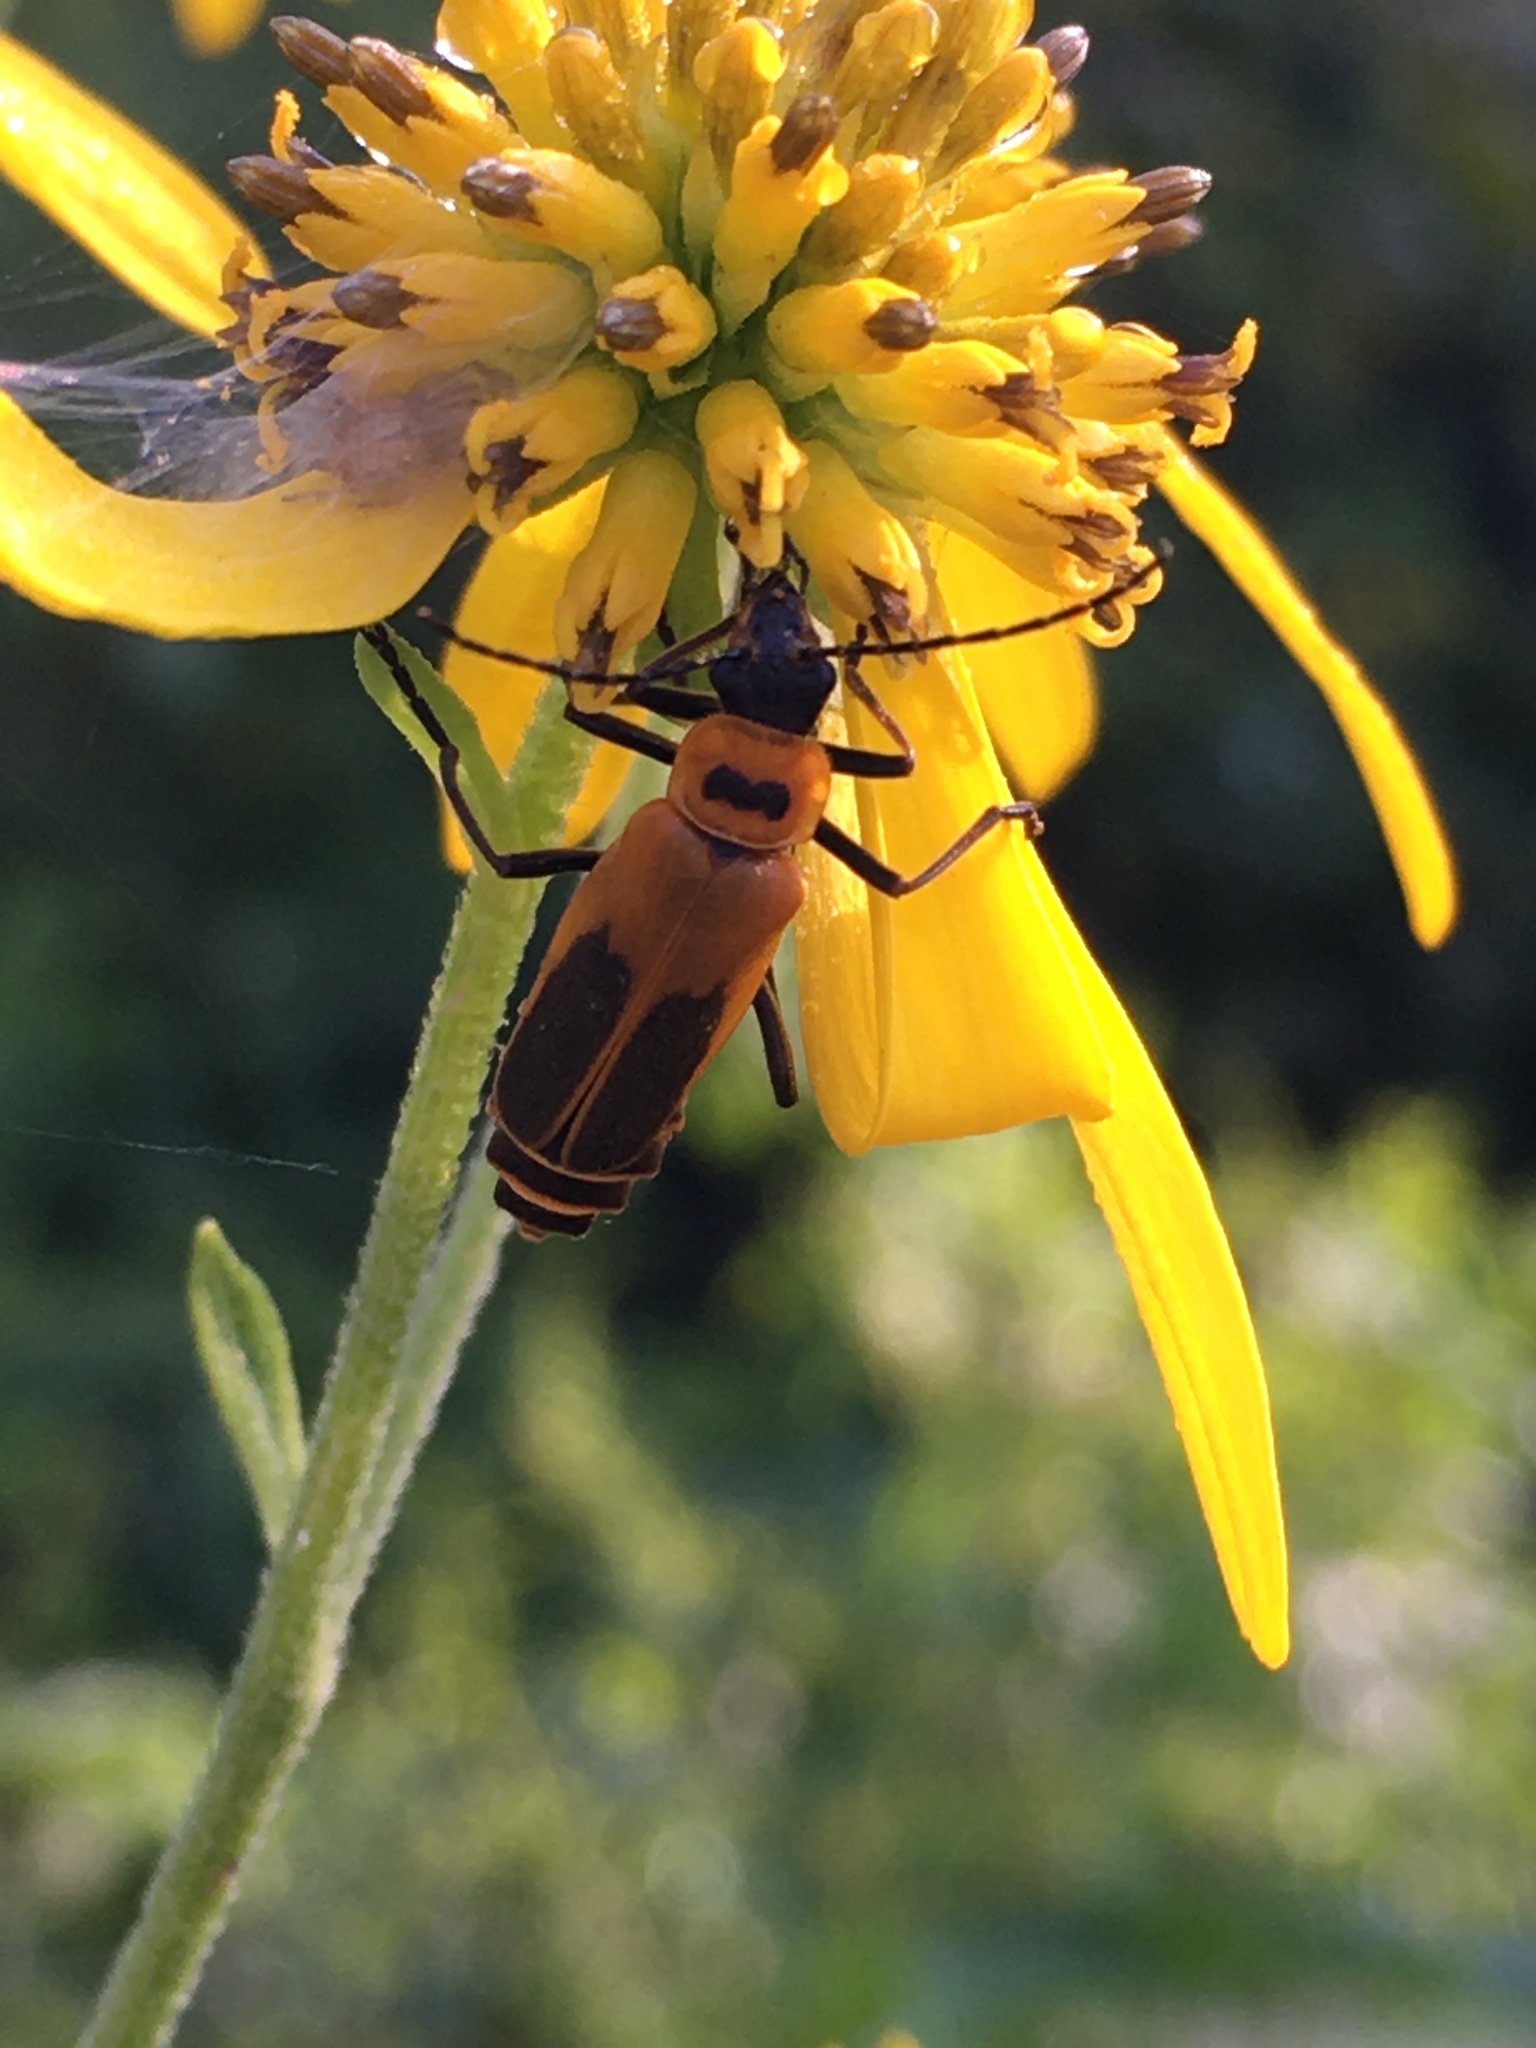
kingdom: Animalia
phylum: Arthropoda
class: Insecta
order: Coleoptera
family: Cantharidae
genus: Chauliognathus
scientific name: Chauliognathus pensylvanicus
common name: Goldenrod soldier beetle
